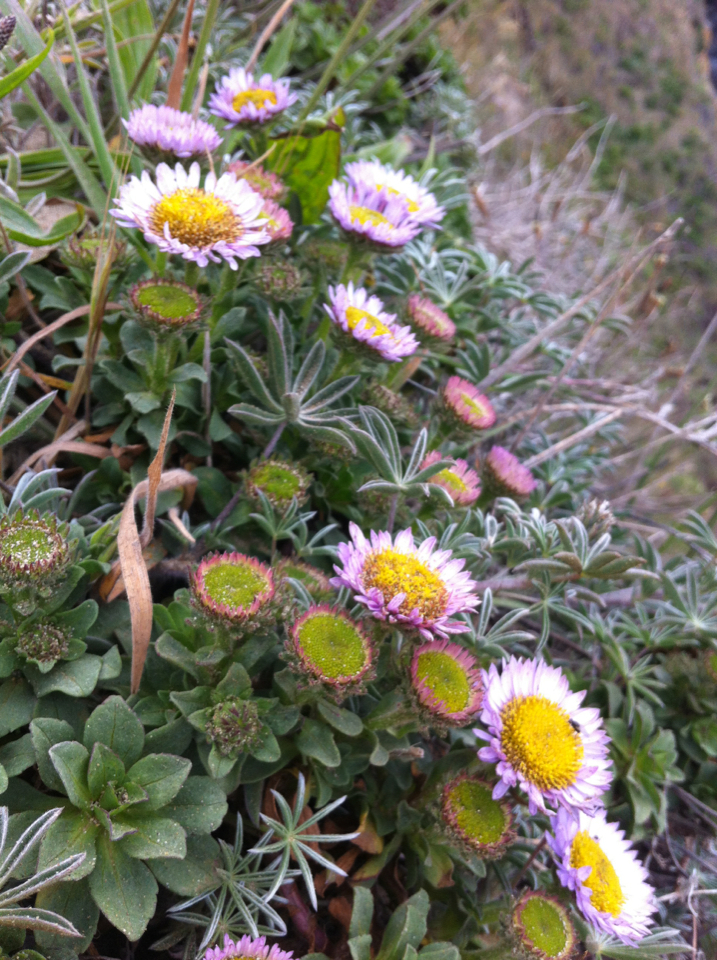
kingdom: Plantae
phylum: Tracheophyta
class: Magnoliopsida
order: Asterales
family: Asteraceae
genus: Erigeron
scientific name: Erigeron glaucus
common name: Seaside daisy
